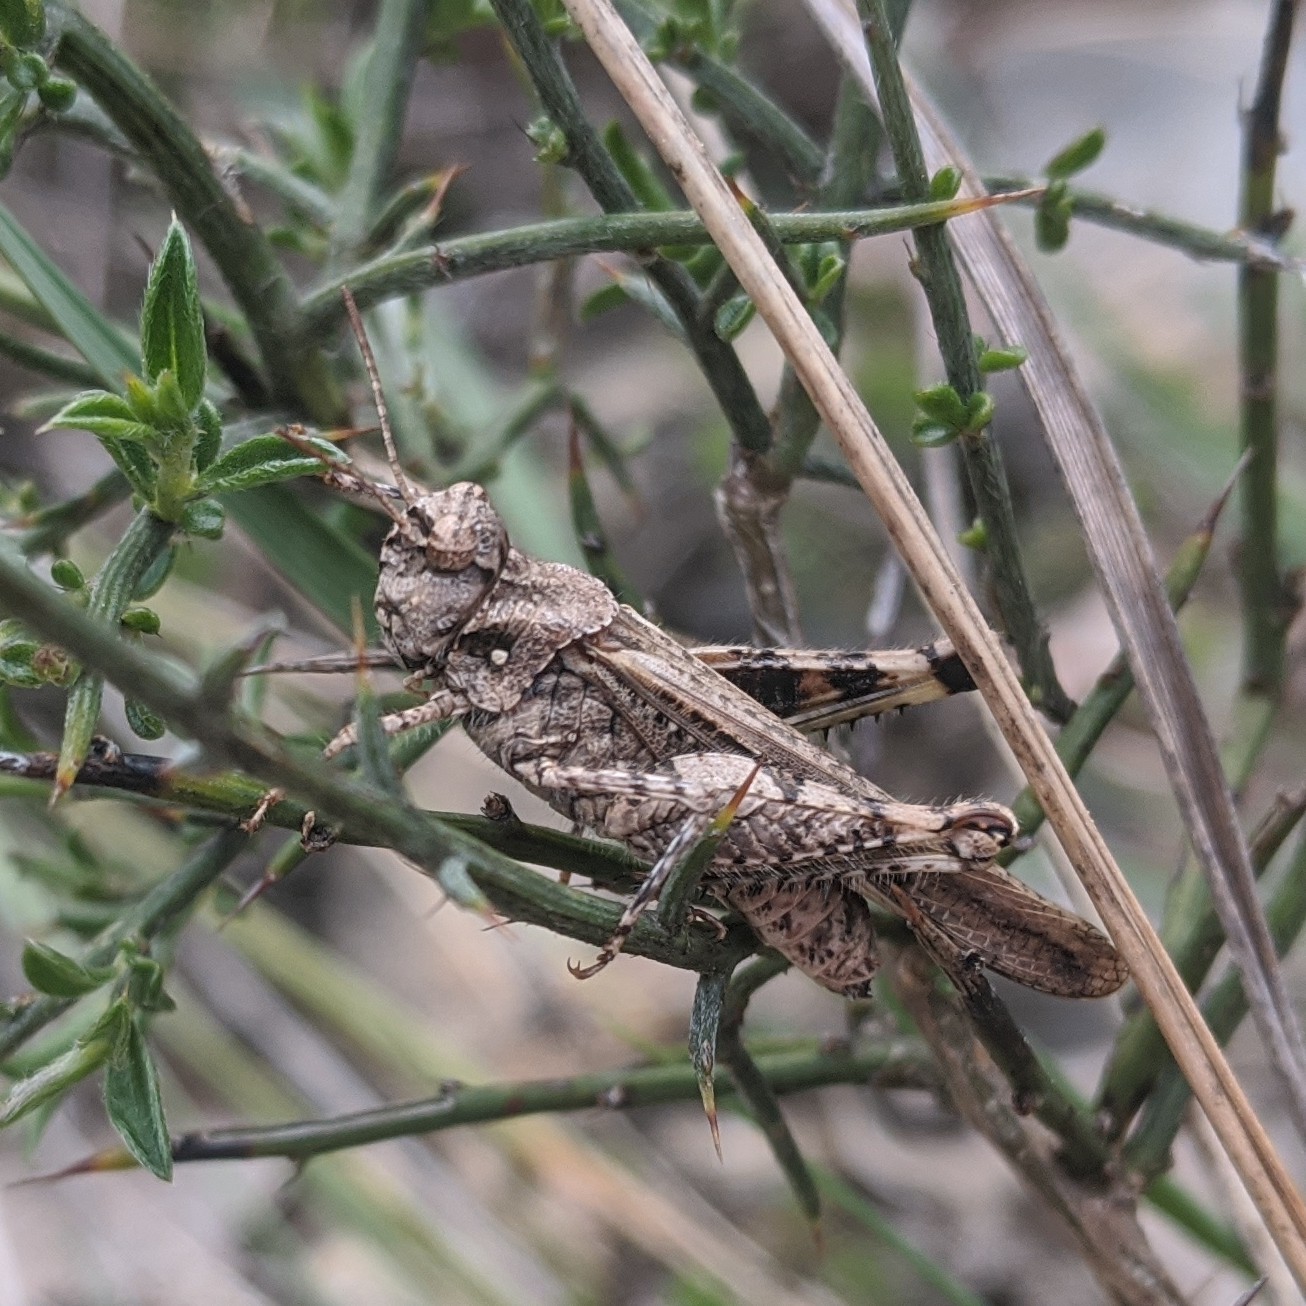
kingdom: Animalia
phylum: Arthropoda
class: Insecta
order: Orthoptera
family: Acrididae
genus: Acrotylus
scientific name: Acrotylus insubricus
